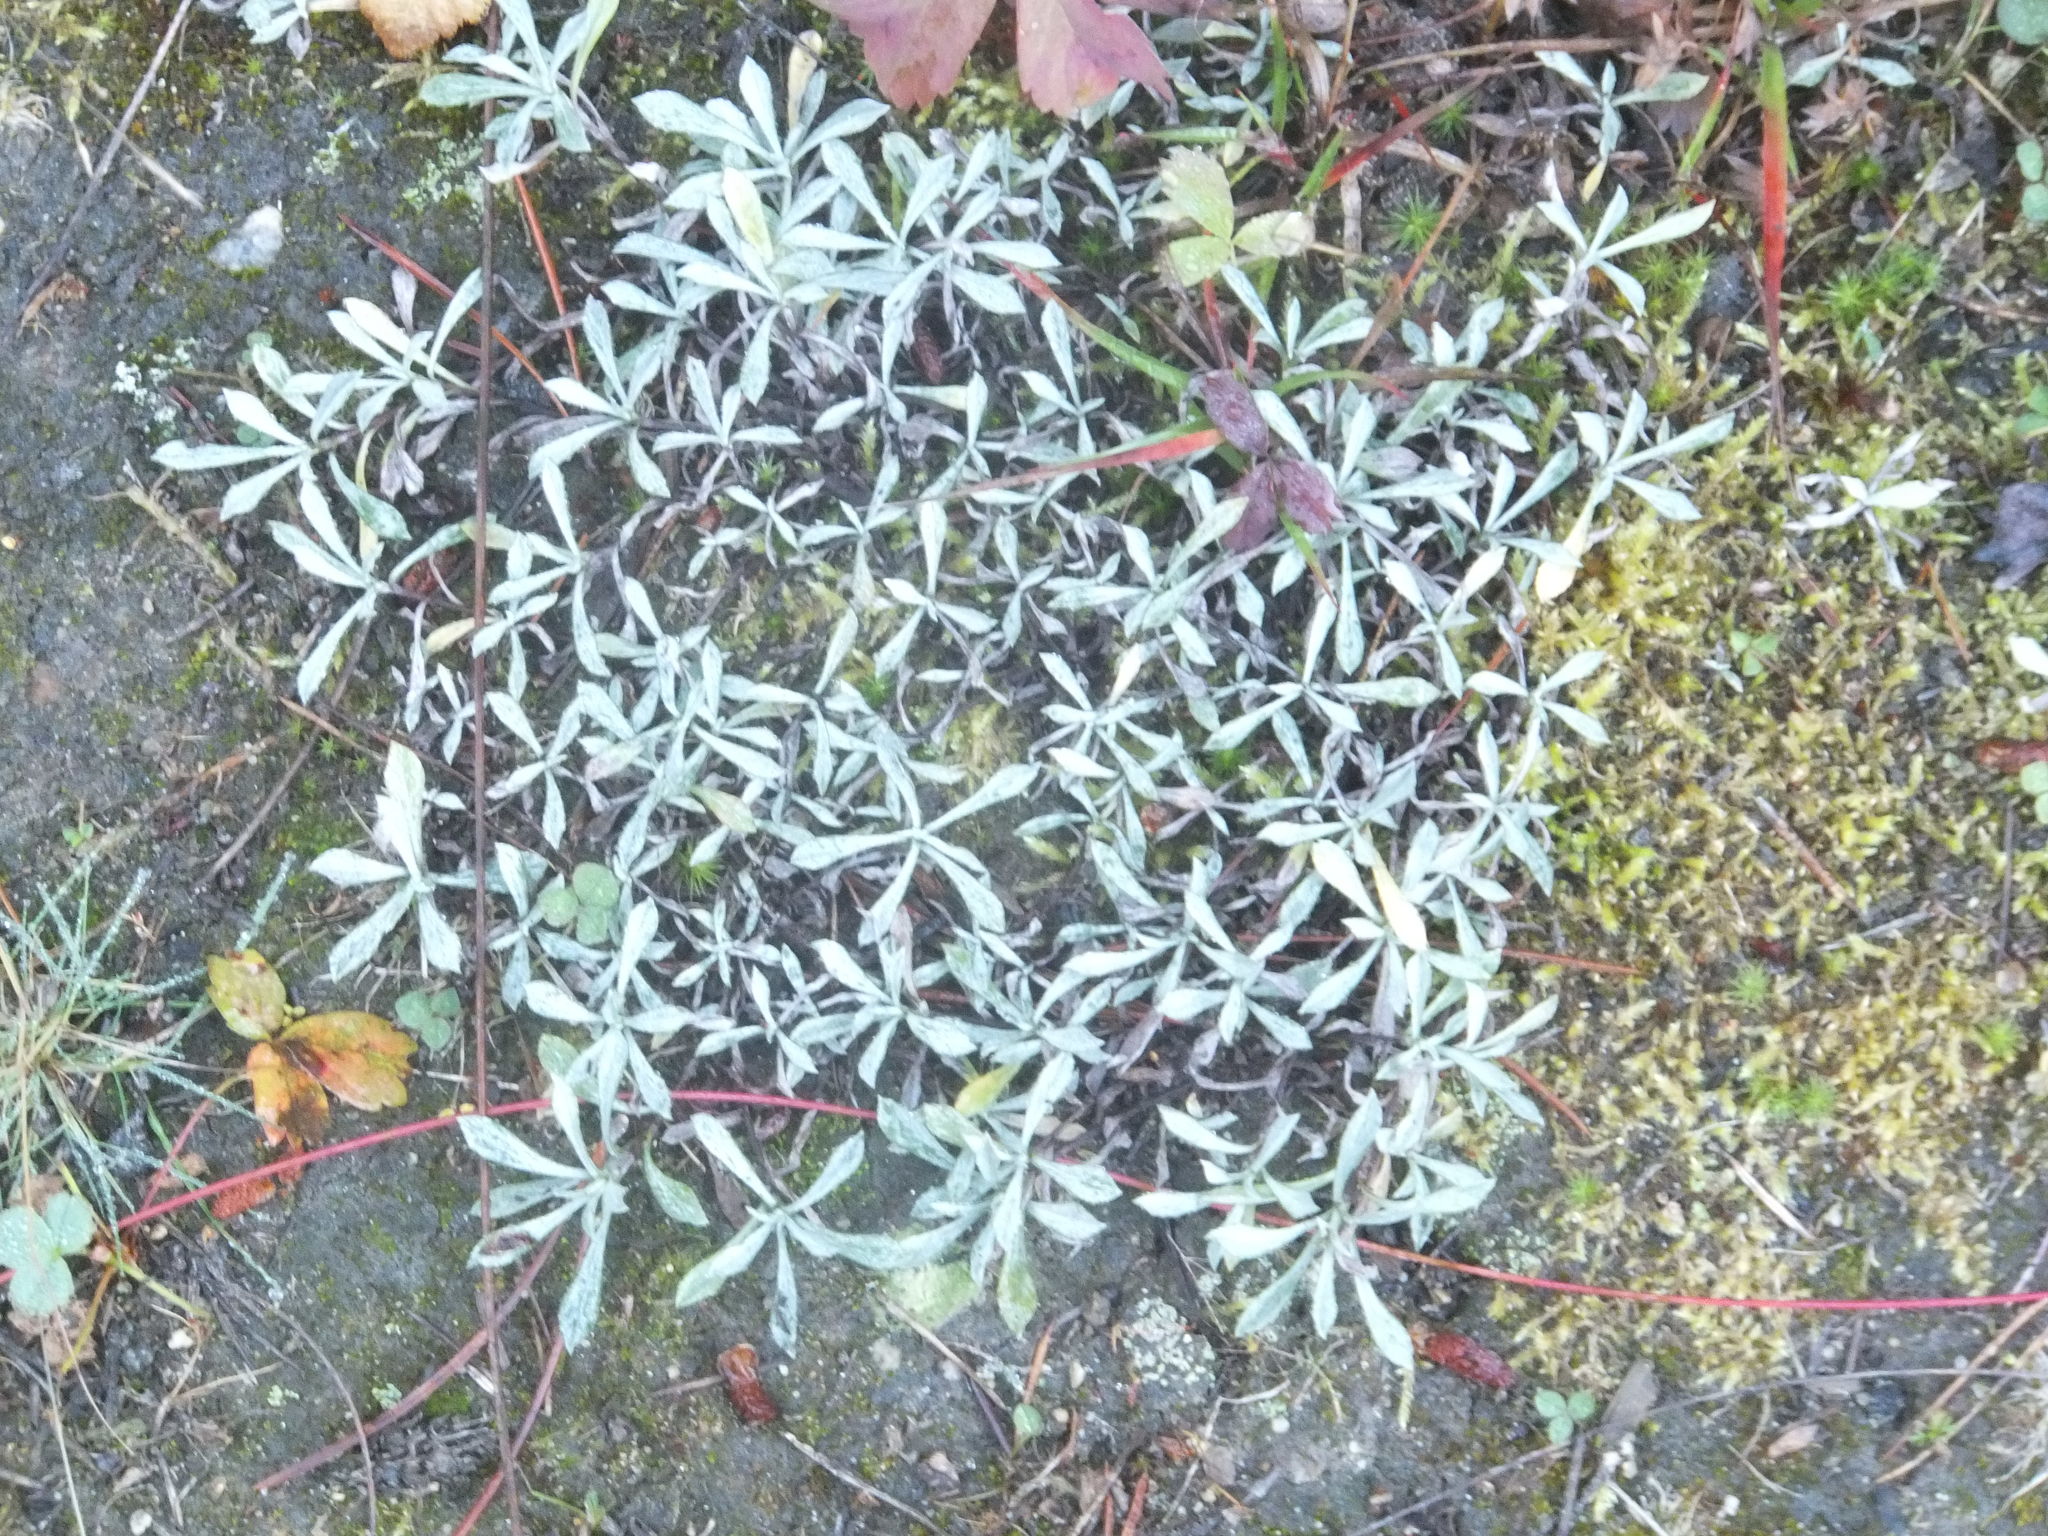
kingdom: Plantae
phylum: Tracheophyta
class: Magnoliopsida
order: Asterales
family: Asteraceae
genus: Antennaria
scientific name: Antennaria umbrinella
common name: Brown pussytoes
